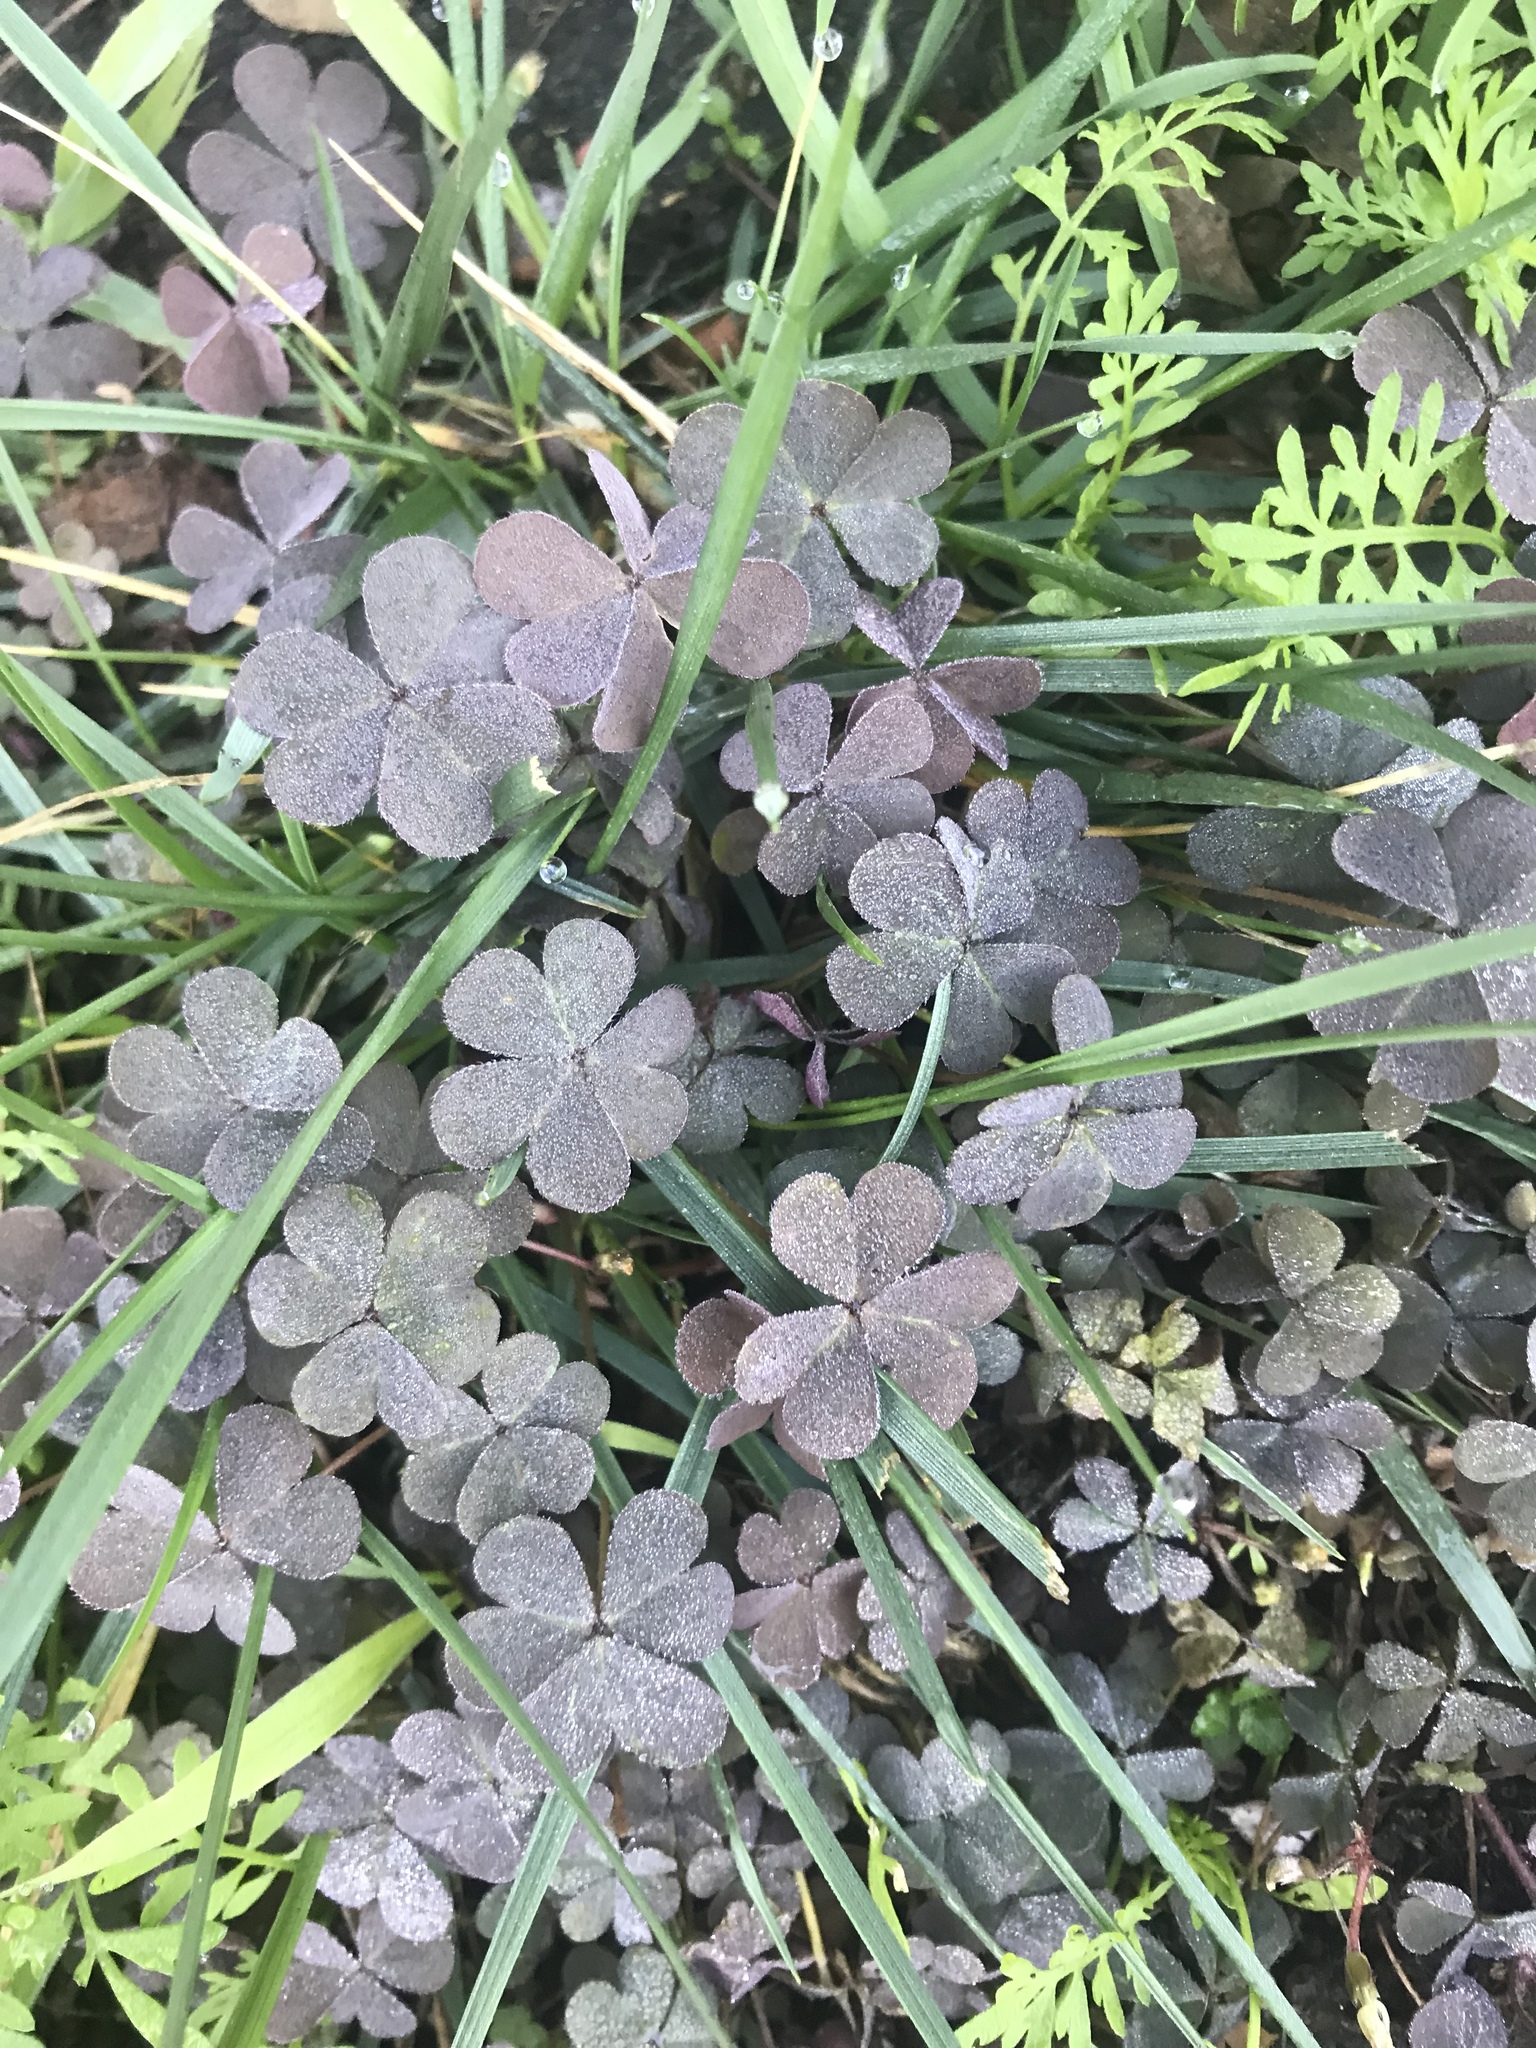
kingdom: Plantae
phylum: Tracheophyta
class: Magnoliopsida
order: Oxalidales
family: Oxalidaceae
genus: Oxalis
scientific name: Oxalis corniculata
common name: Procumbent yellow-sorrel
